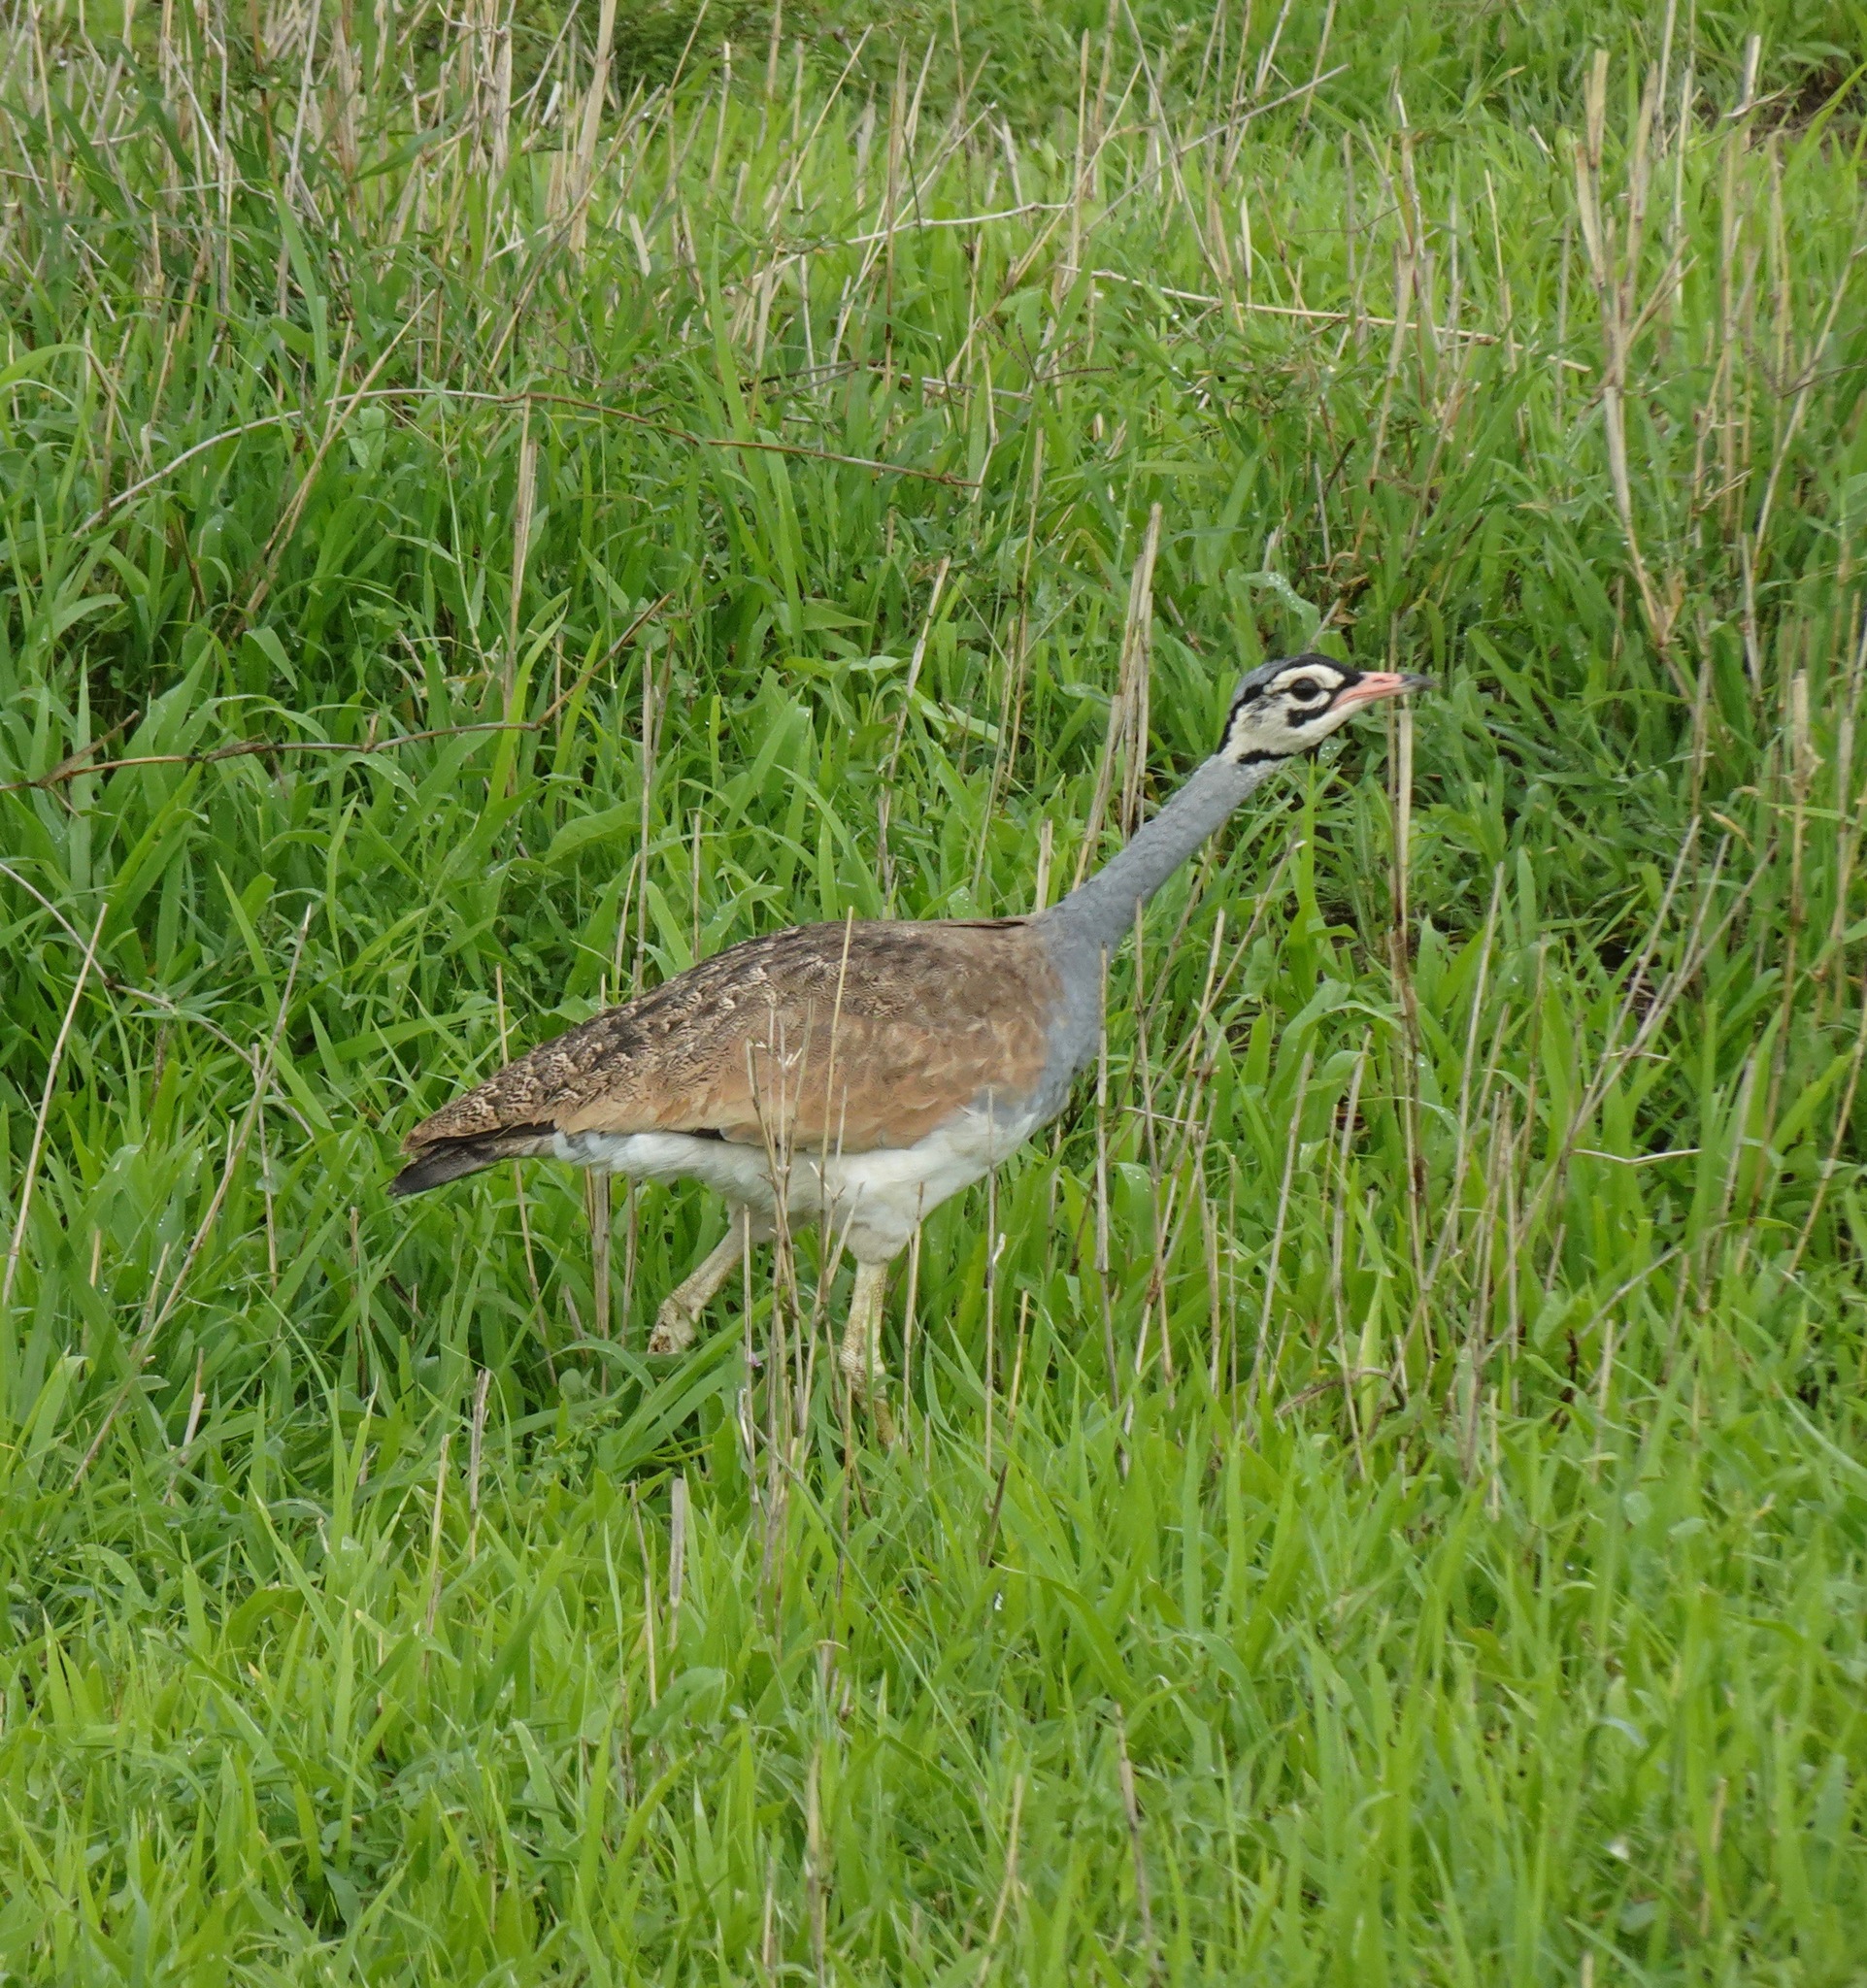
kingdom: Animalia
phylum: Chordata
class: Aves
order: Otidiformes
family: Otididae
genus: Eupodotis
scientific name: Eupodotis senegalensis
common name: White-bellied bustard
